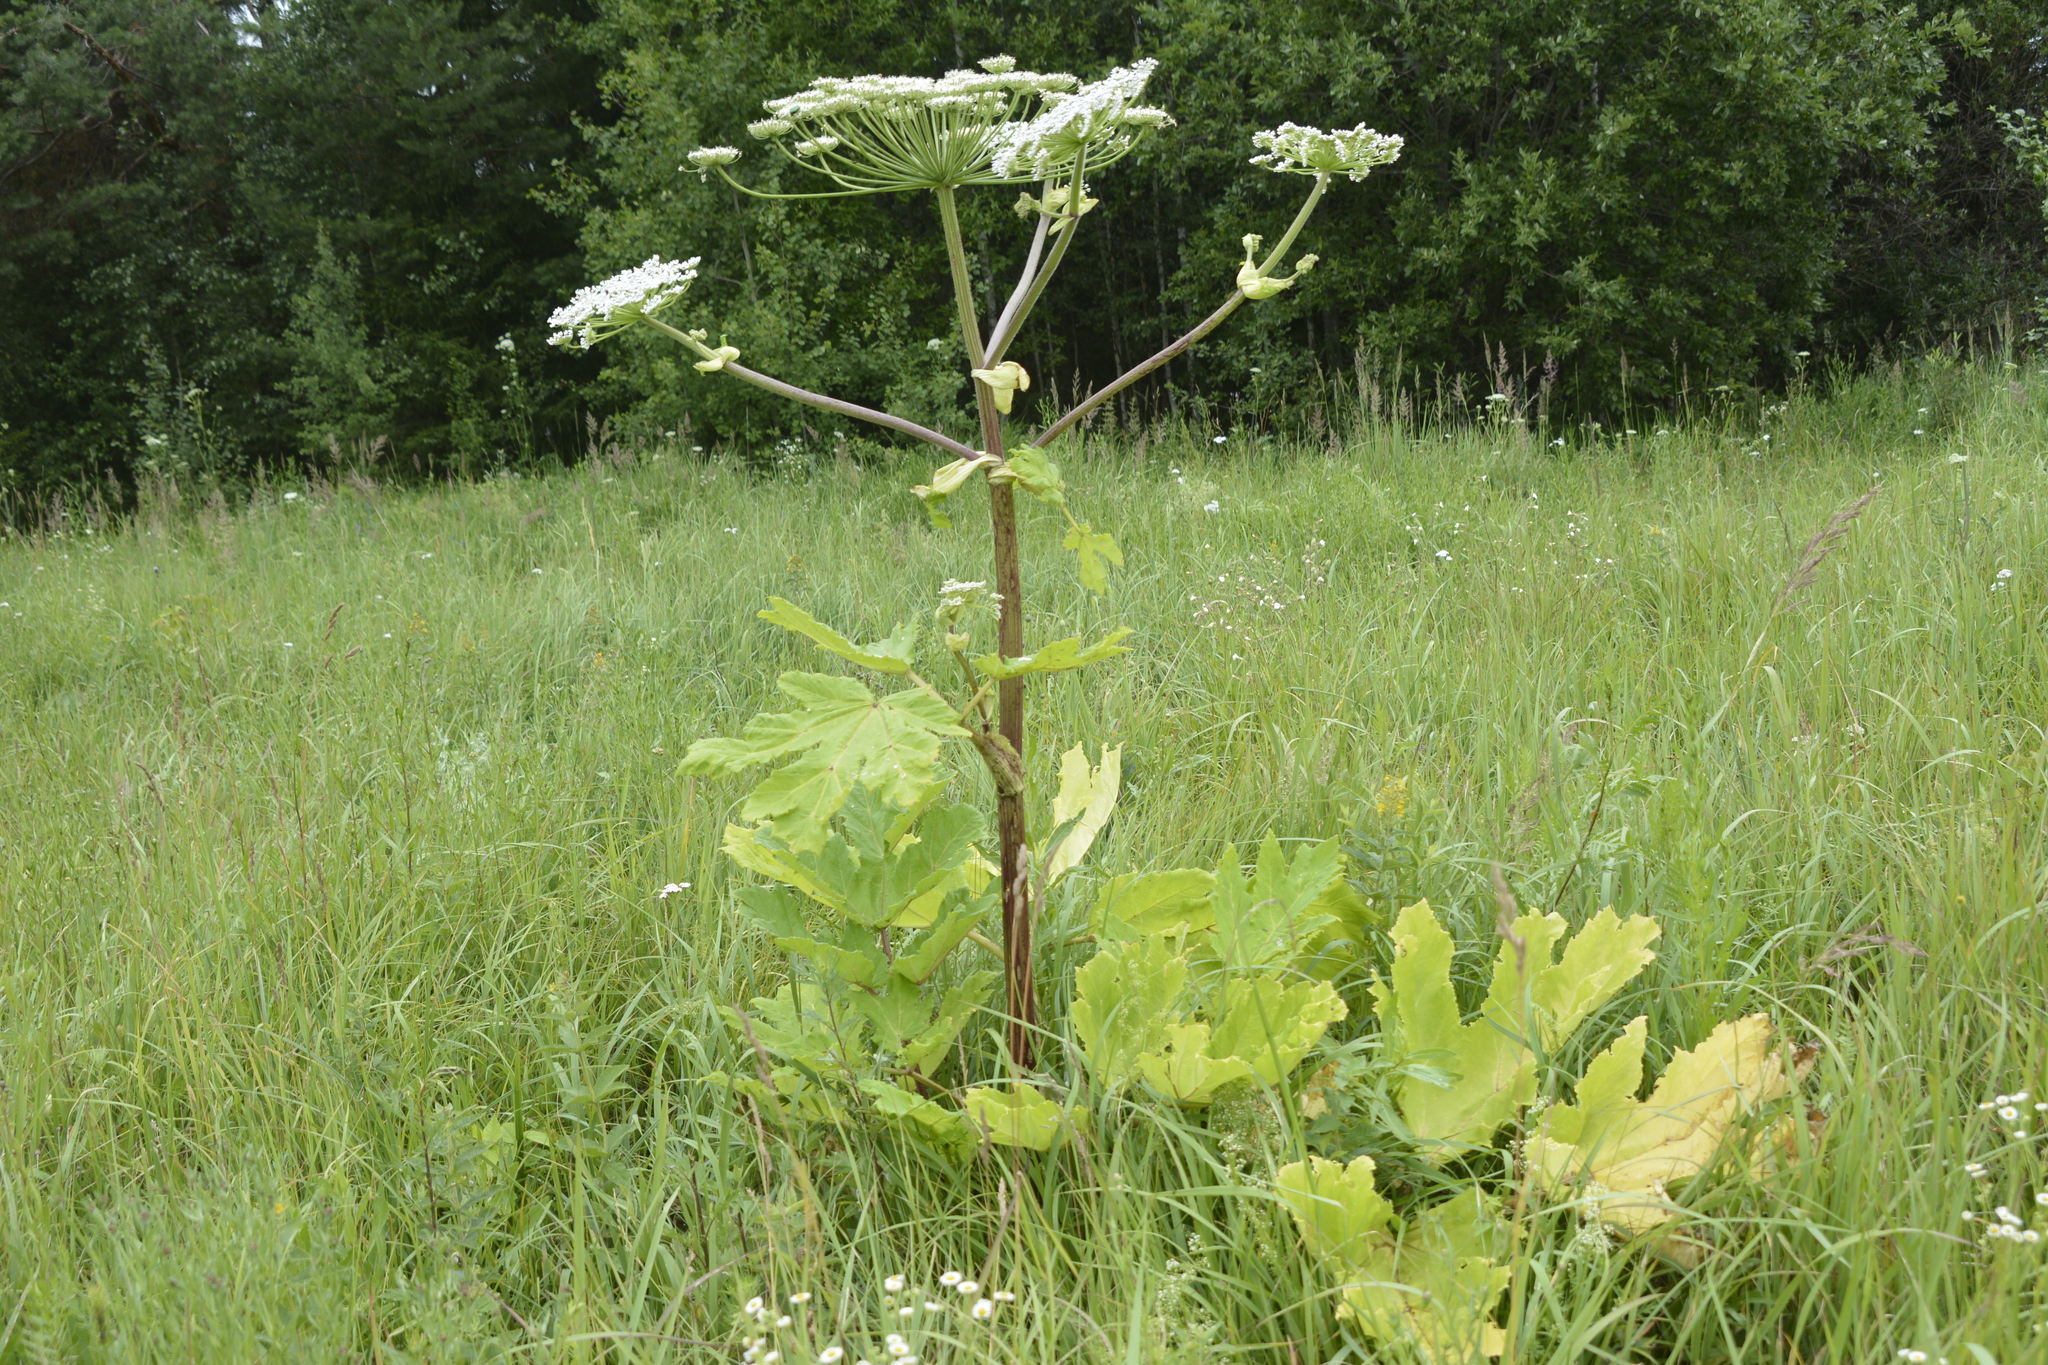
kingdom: Plantae
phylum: Tracheophyta
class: Magnoliopsida
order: Apiales
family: Apiaceae
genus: Heracleum
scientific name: Heracleum sosnowskyi
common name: Sosnowsky's hogweed
